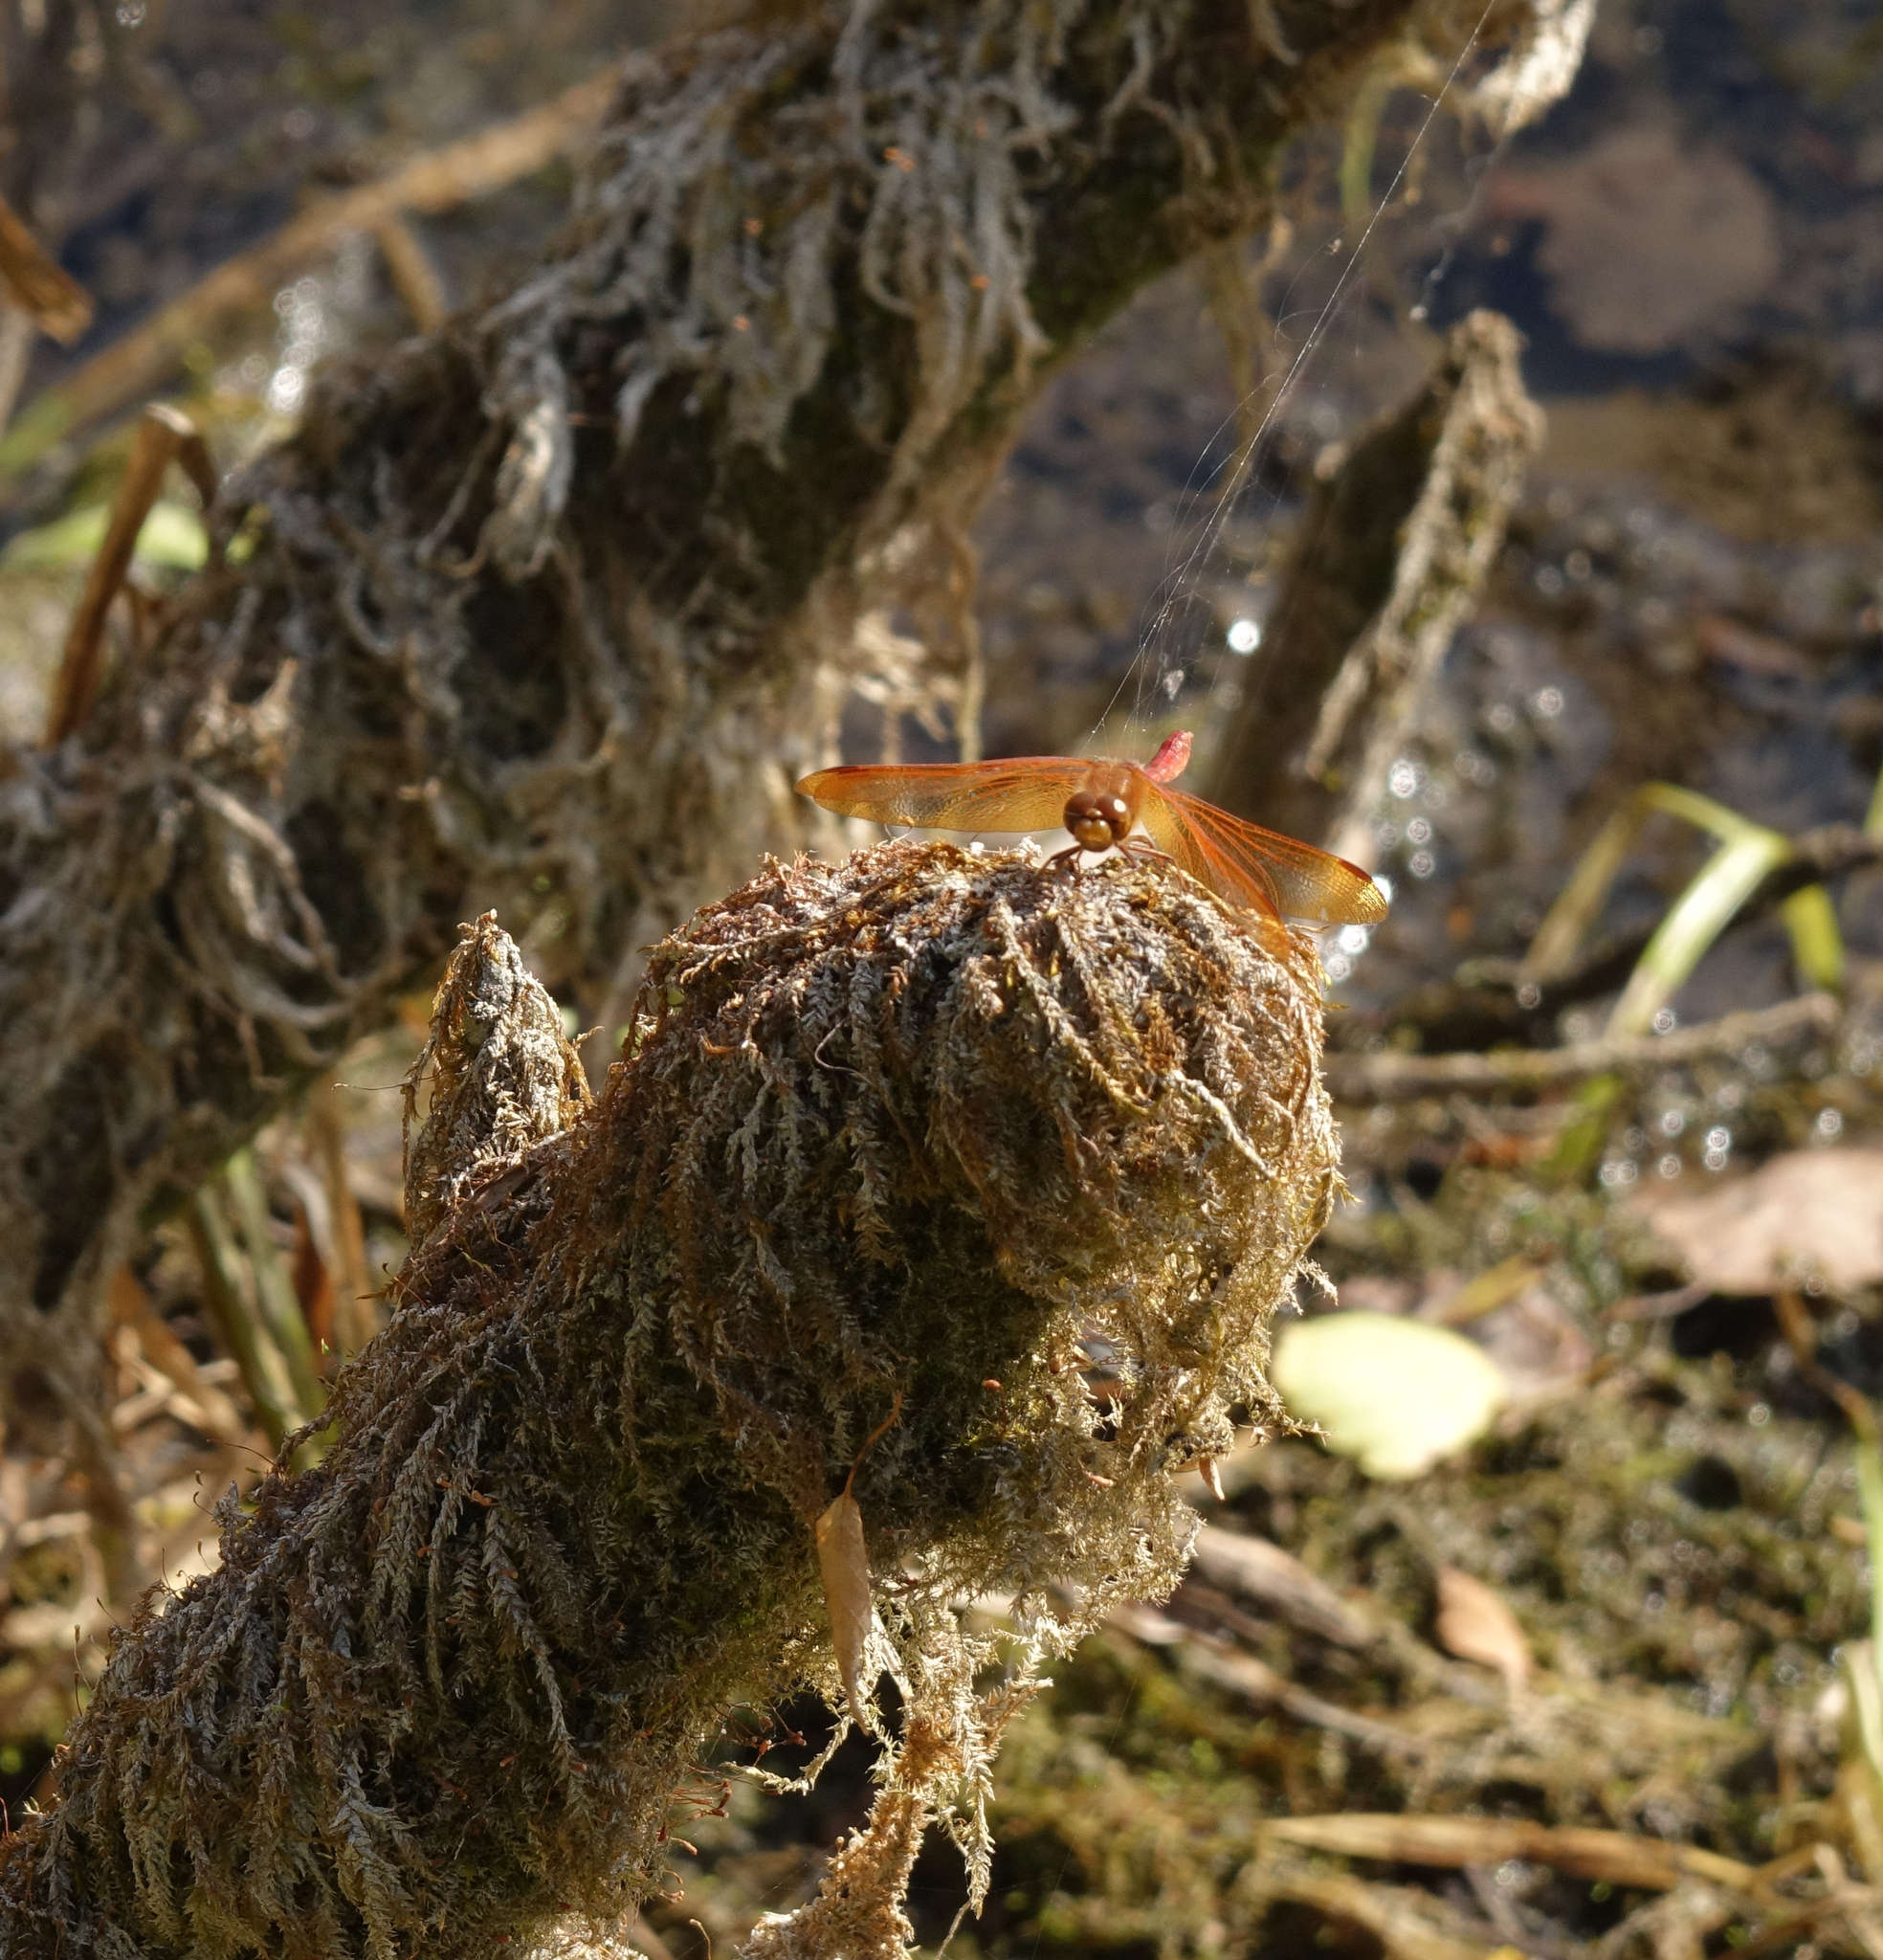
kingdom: Animalia
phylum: Arthropoda
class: Insecta
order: Odonata
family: Libellulidae
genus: Sympetrum
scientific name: Sympetrum croceolum
